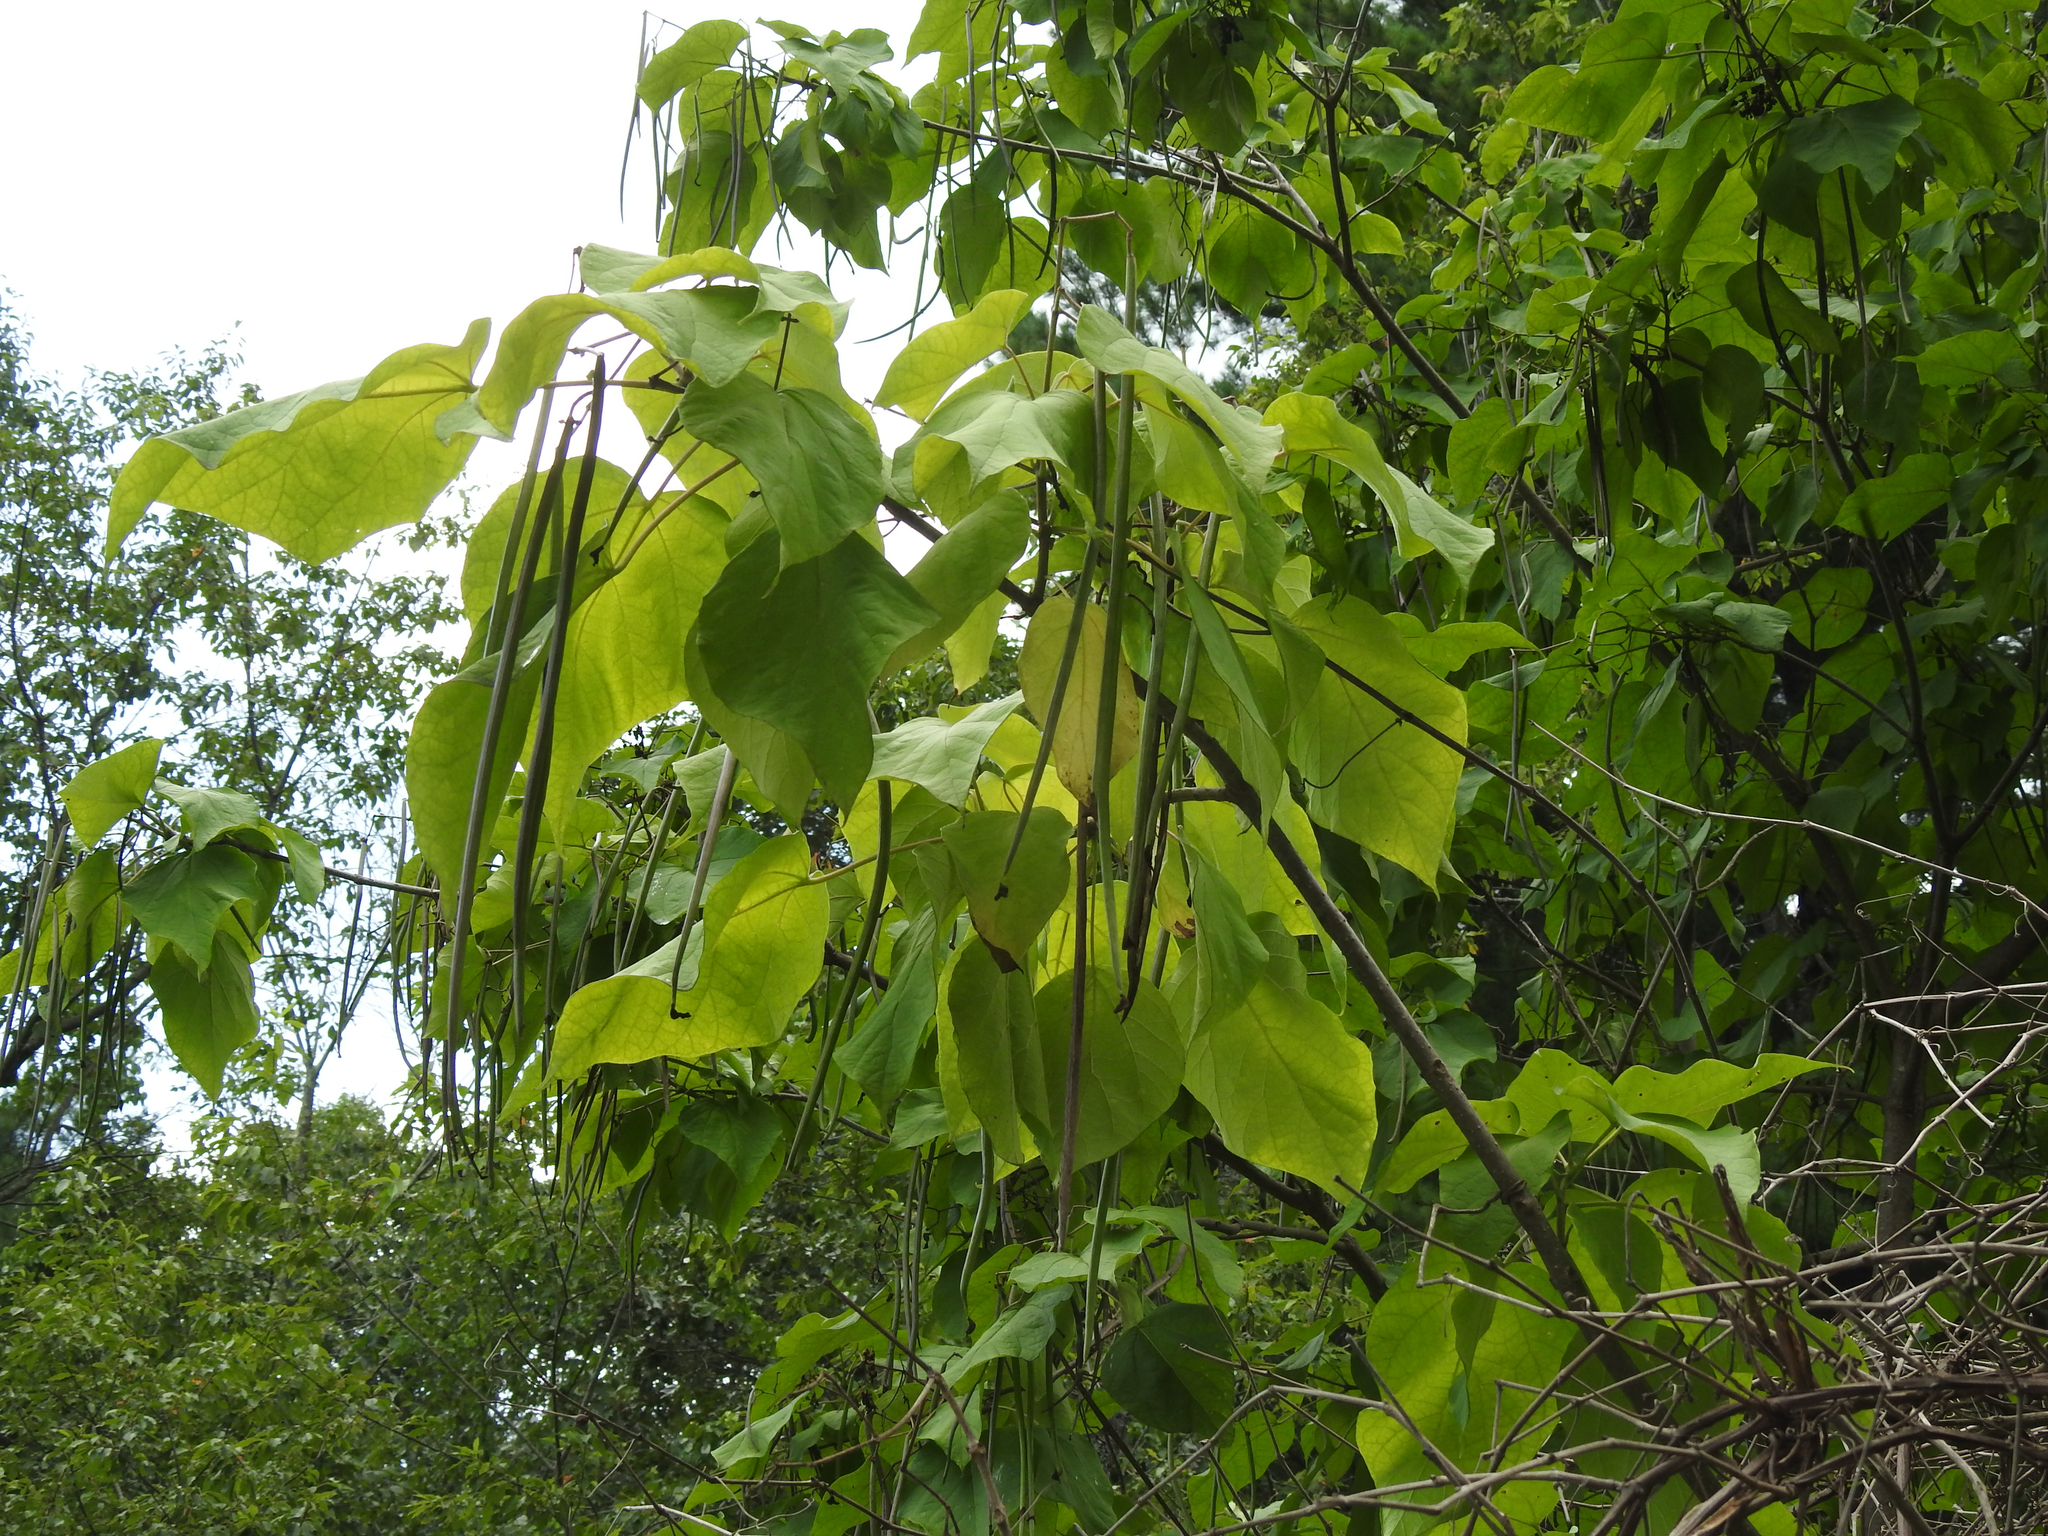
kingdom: Plantae
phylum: Tracheophyta
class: Magnoliopsida
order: Lamiales
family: Bignoniaceae
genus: Catalpa
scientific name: Catalpa speciosa
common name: Northern catalpa
